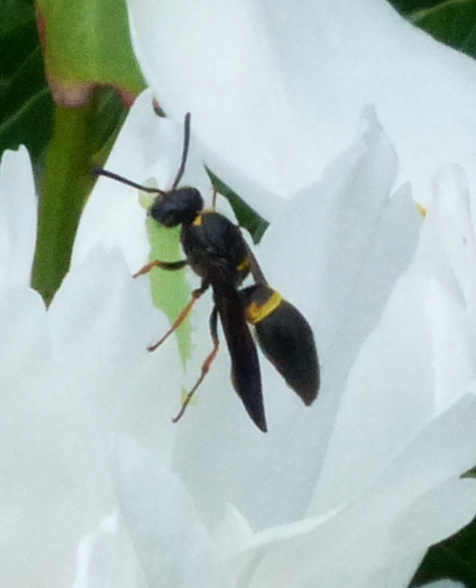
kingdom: Animalia
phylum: Arthropoda
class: Insecta
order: Hymenoptera
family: Vespidae
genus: Ancistrocerus
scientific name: Ancistrocerus unifasciatus
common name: One-banded mason wasp
